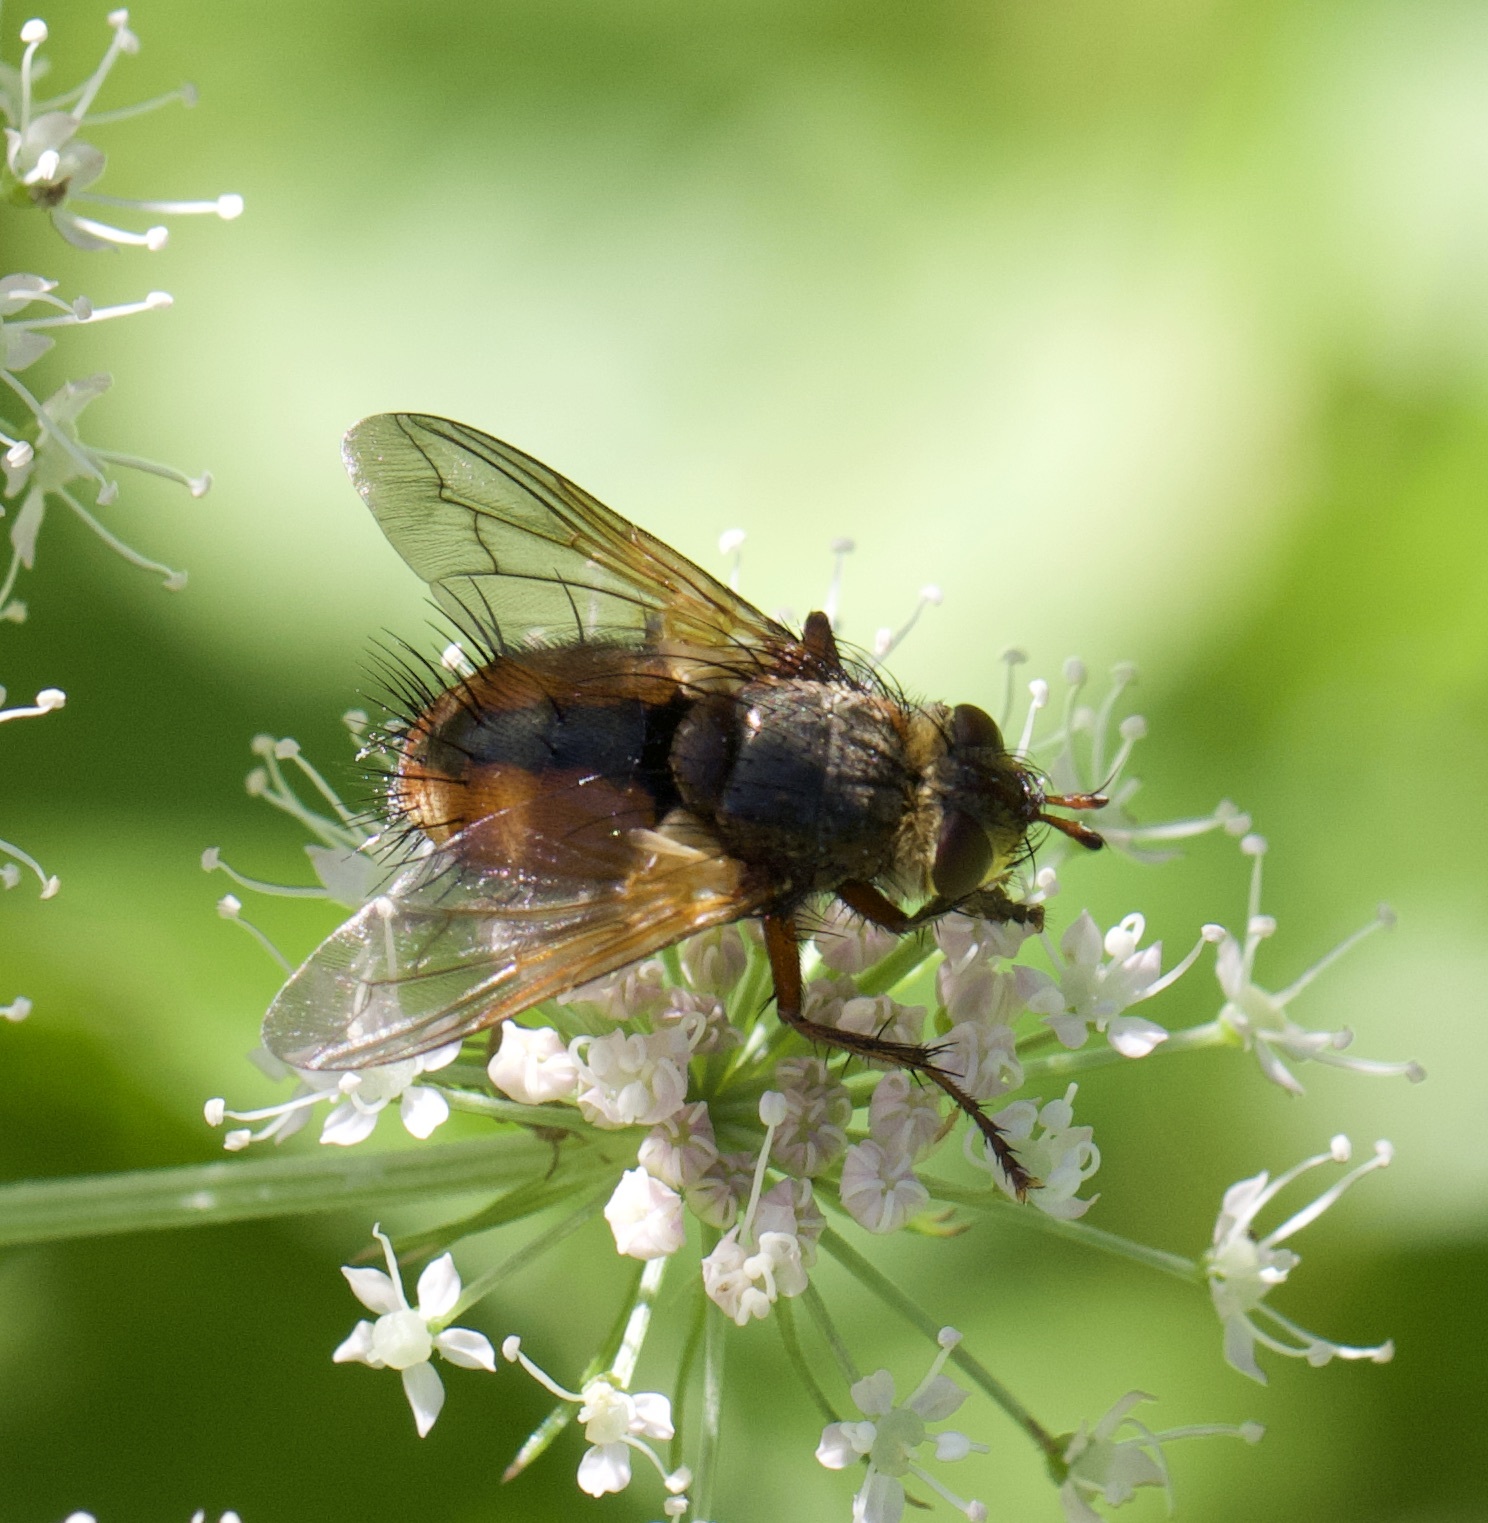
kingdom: Animalia
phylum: Arthropoda
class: Insecta
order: Diptera
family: Tachinidae
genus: Tachina
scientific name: Tachina fera
